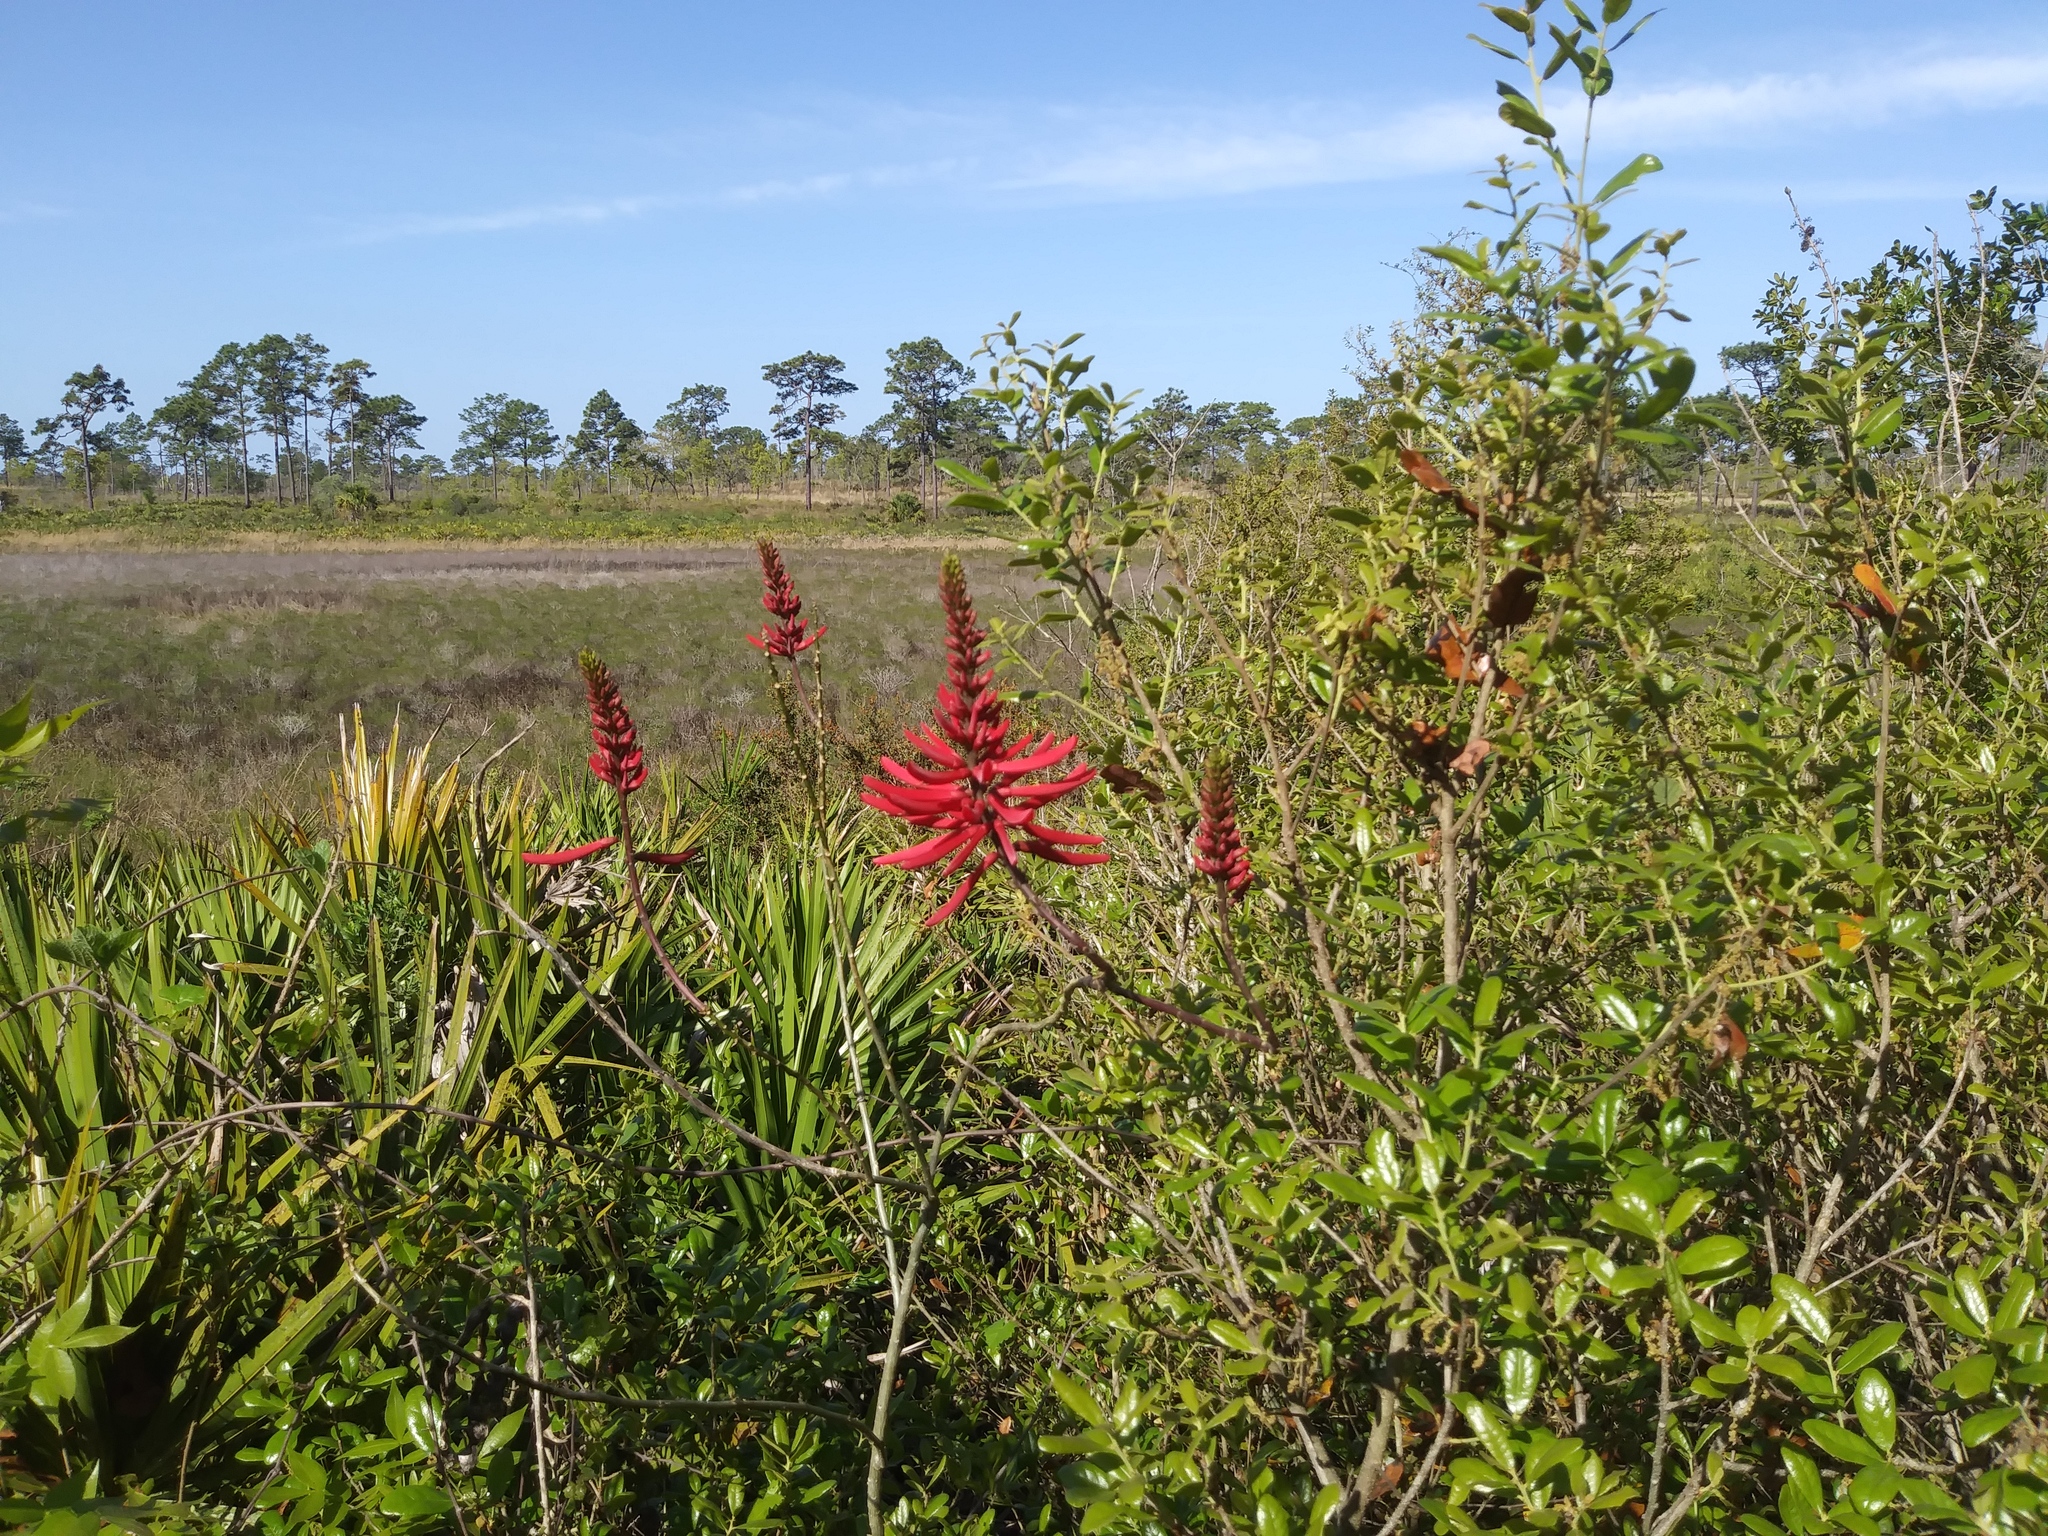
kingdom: Plantae
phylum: Tracheophyta
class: Magnoliopsida
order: Fabales
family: Fabaceae
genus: Erythrina
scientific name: Erythrina herbacea
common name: Coral-bean
